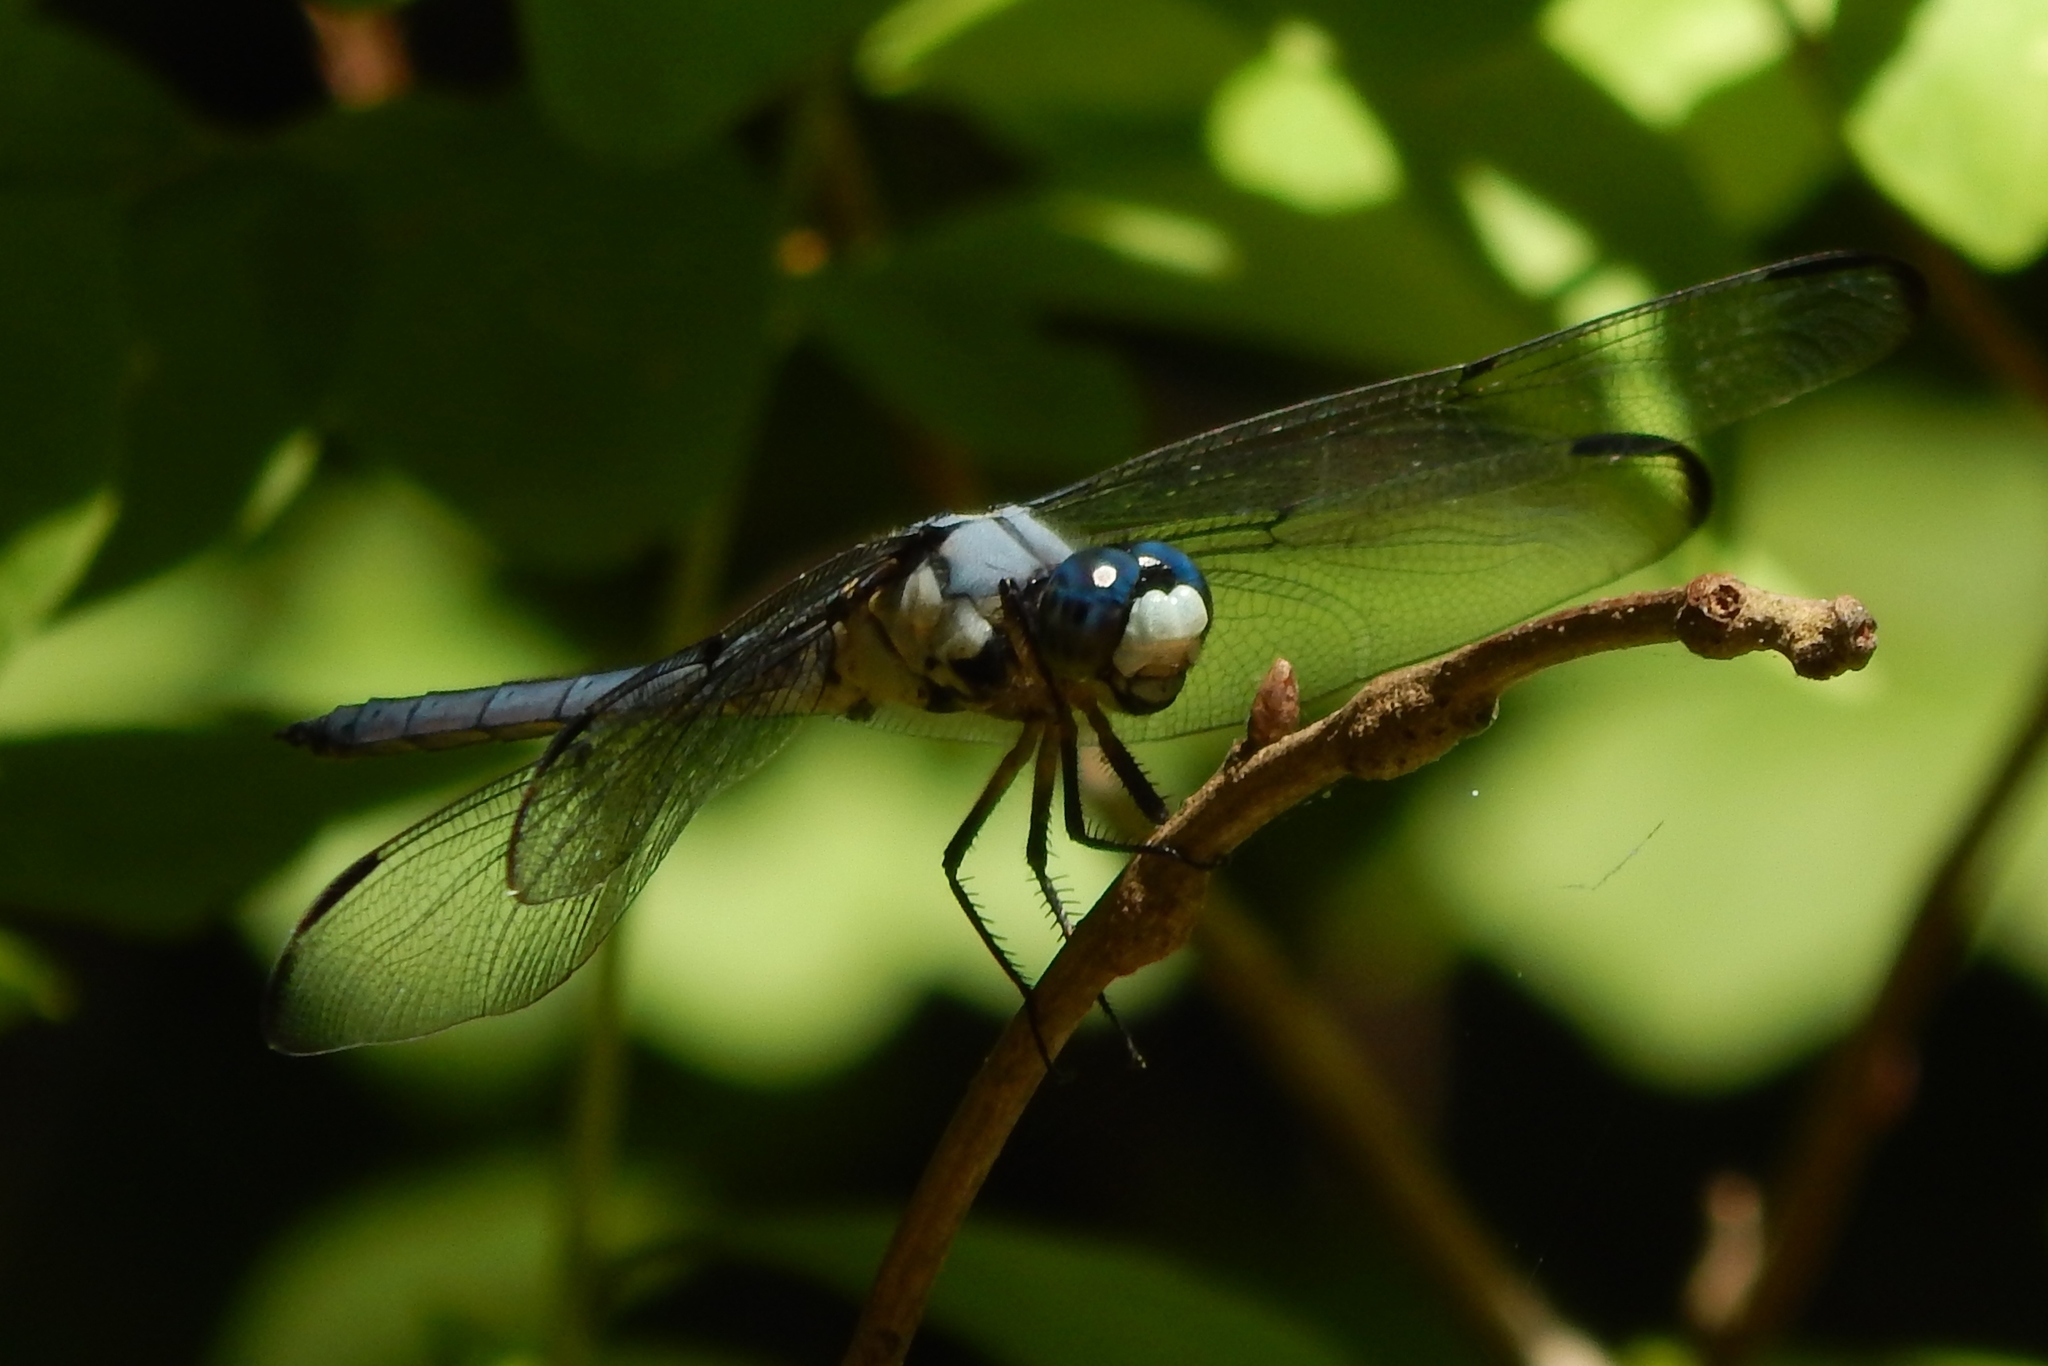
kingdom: Animalia
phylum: Arthropoda
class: Insecta
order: Odonata
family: Libellulidae
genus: Libellula
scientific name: Libellula vibrans
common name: Great blue skimmer
